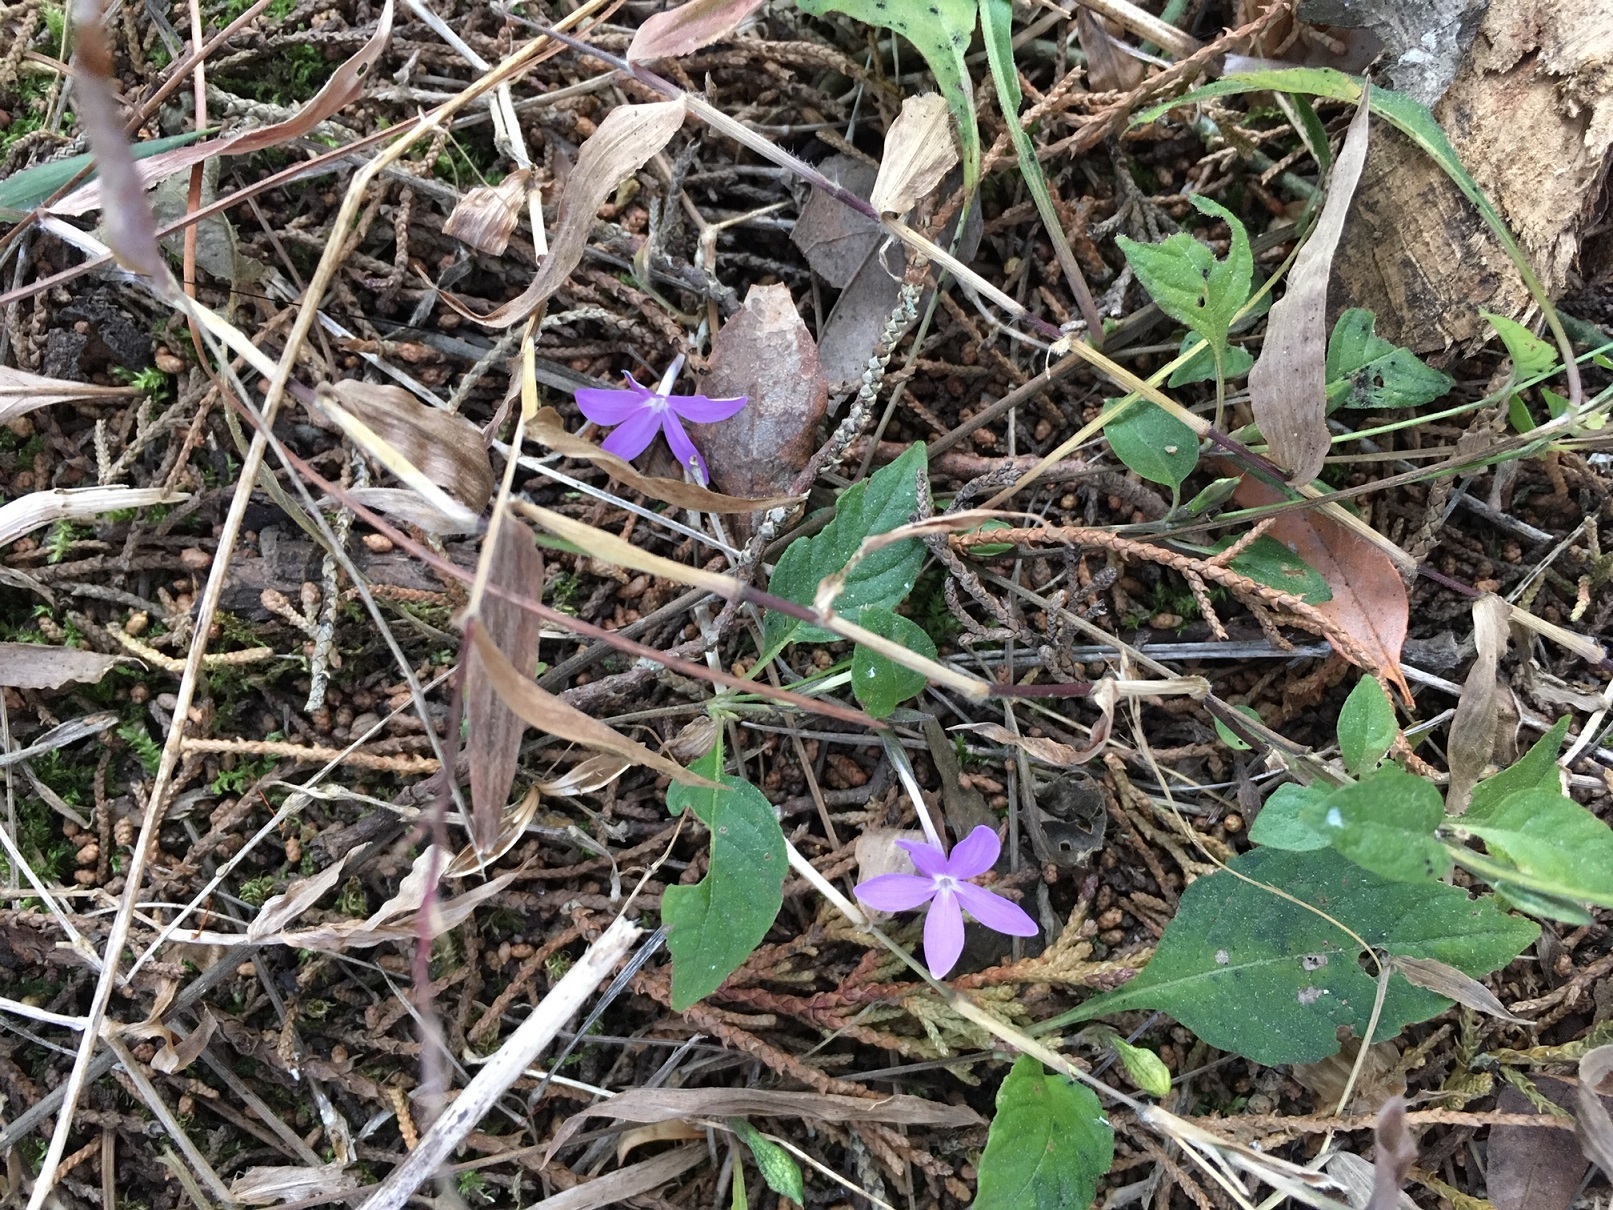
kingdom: Plantae
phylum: Tracheophyta
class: Magnoliopsida
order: Lamiales
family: Acanthaceae
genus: Pseuderanthemum
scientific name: Pseuderanthemum praecox
